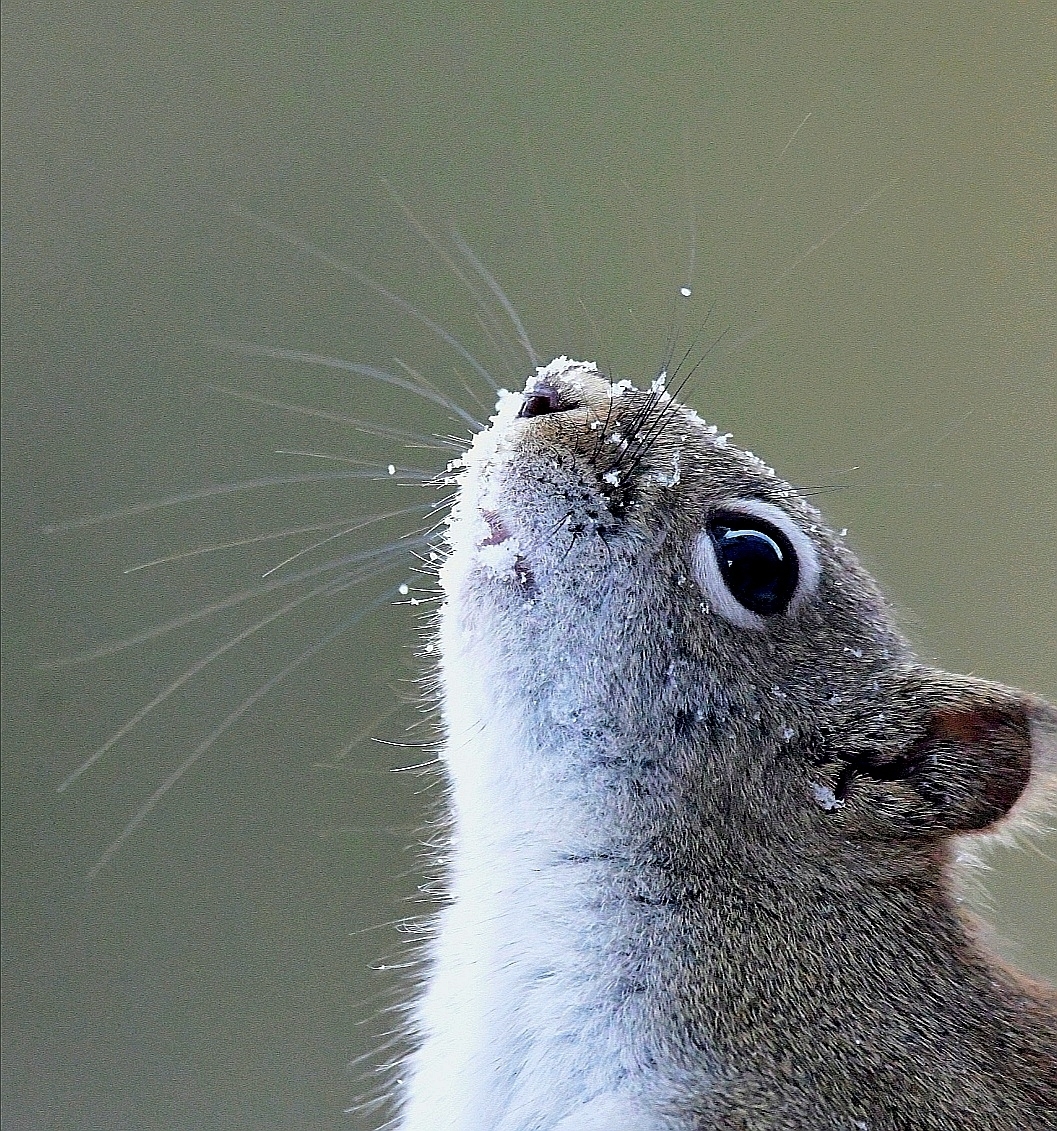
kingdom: Animalia
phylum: Chordata
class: Mammalia
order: Rodentia
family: Sciuridae
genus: Tamiasciurus
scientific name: Tamiasciurus hudsonicus
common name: Red squirrel
